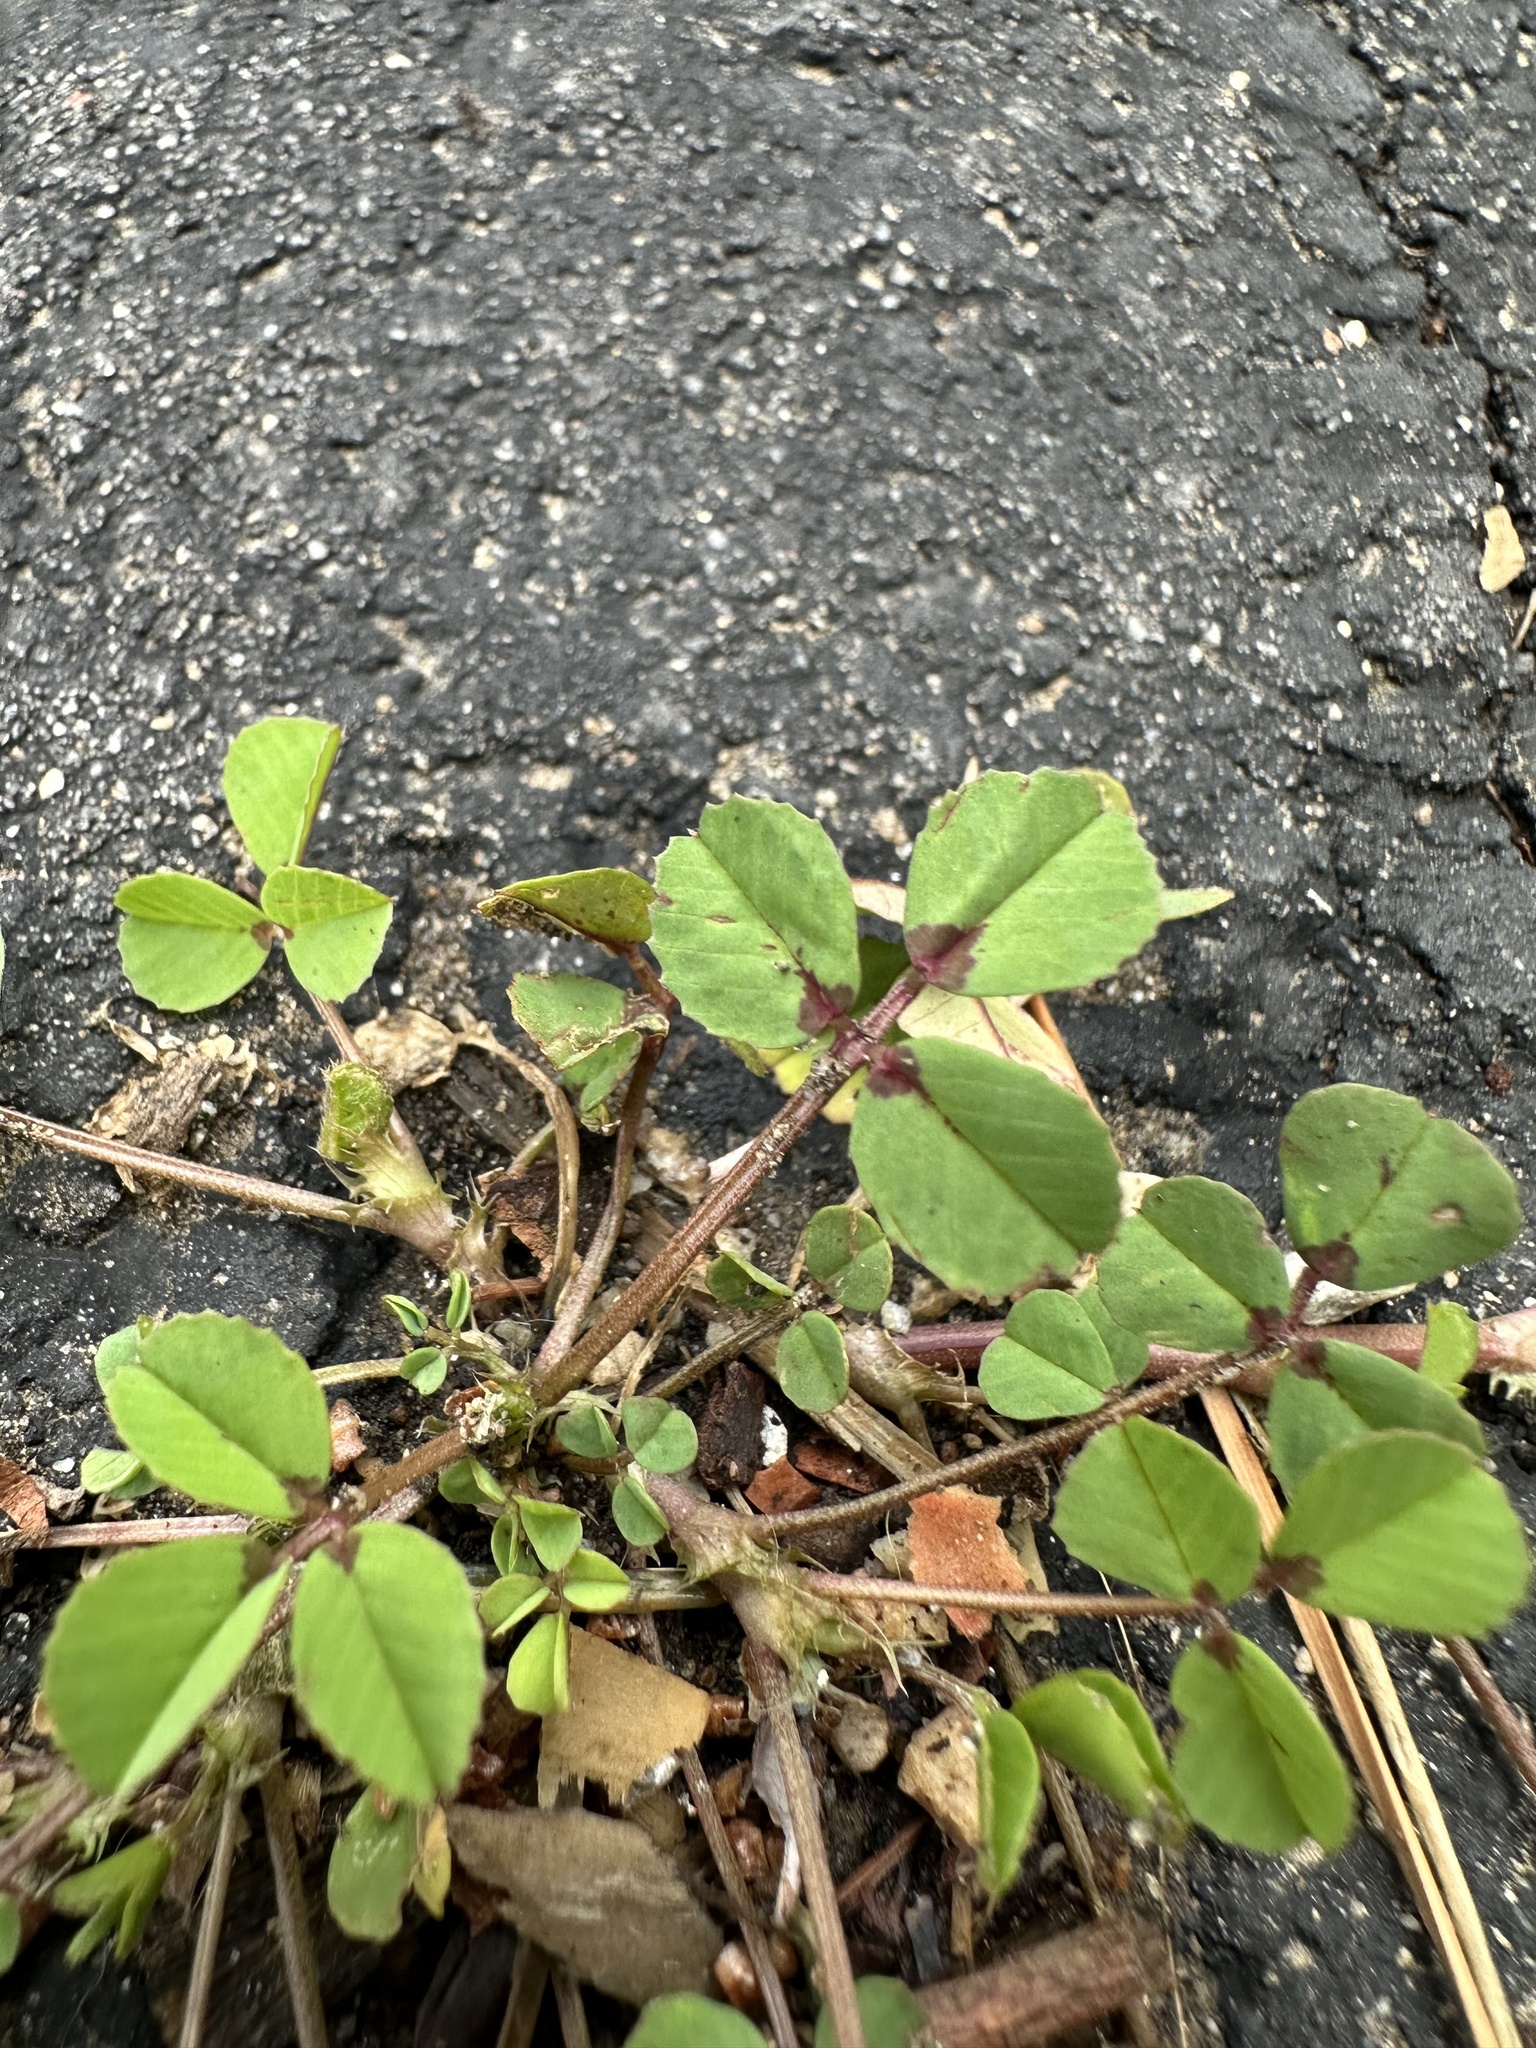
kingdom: Plantae
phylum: Tracheophyta
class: Magnoliopsida
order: Fabales
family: Fabaceae
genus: Medicago
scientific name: Medicago polymorpha
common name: Burclover
